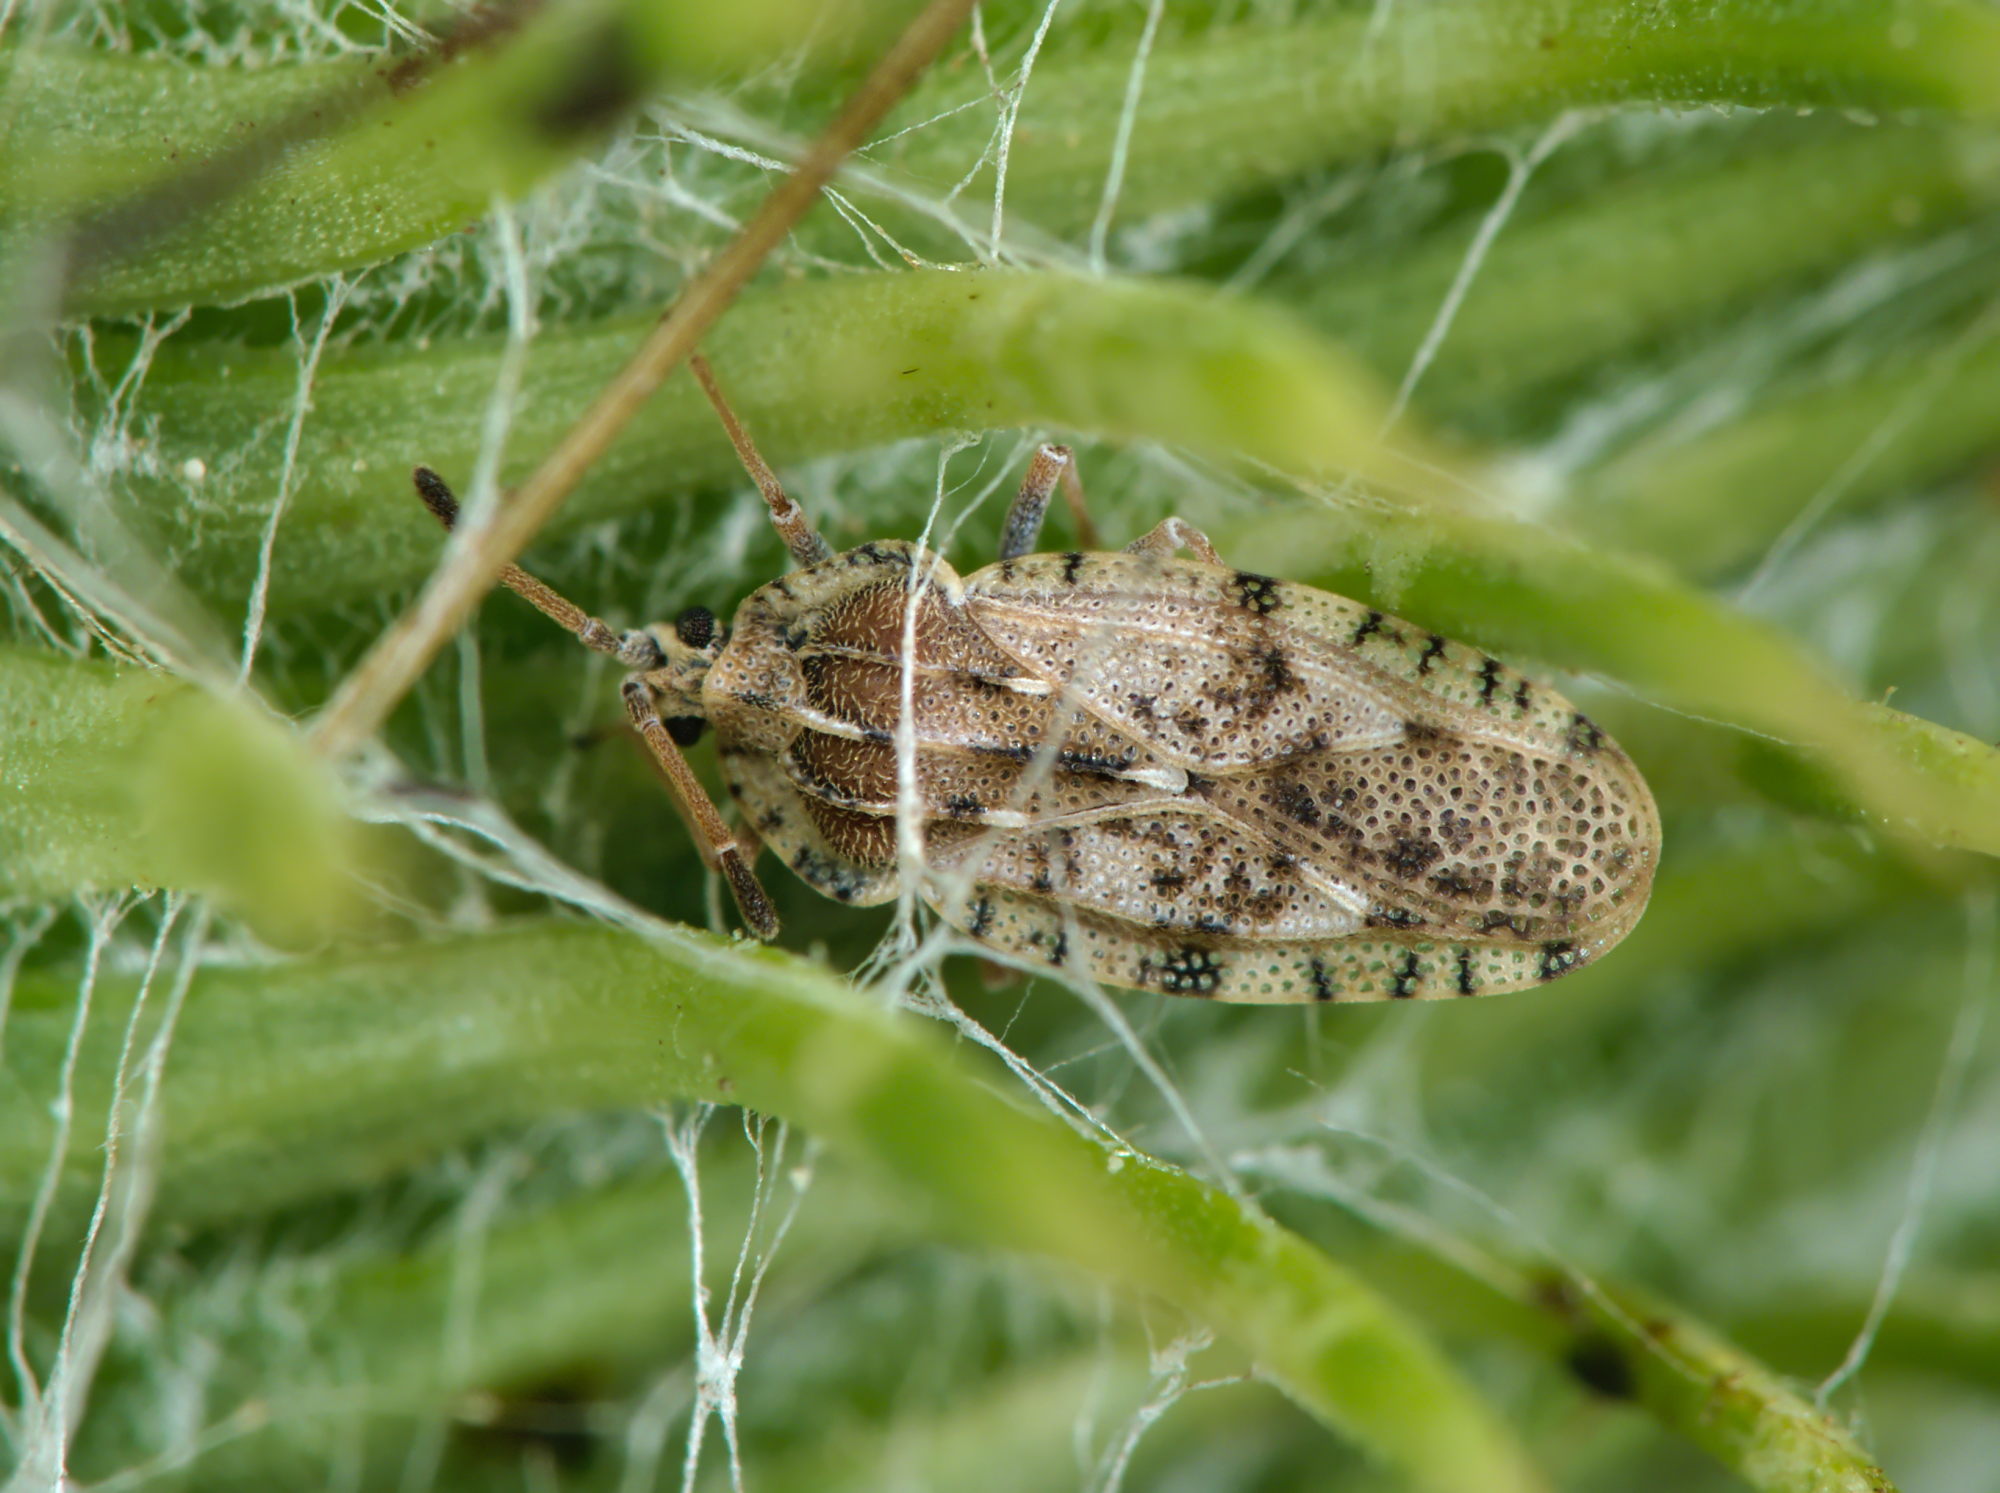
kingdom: Animalia
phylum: Arthropoda
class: Insecta
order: Hemiptera
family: Tingidae
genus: Tingis
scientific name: Tingis cardui
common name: Spear thistle lacebug
